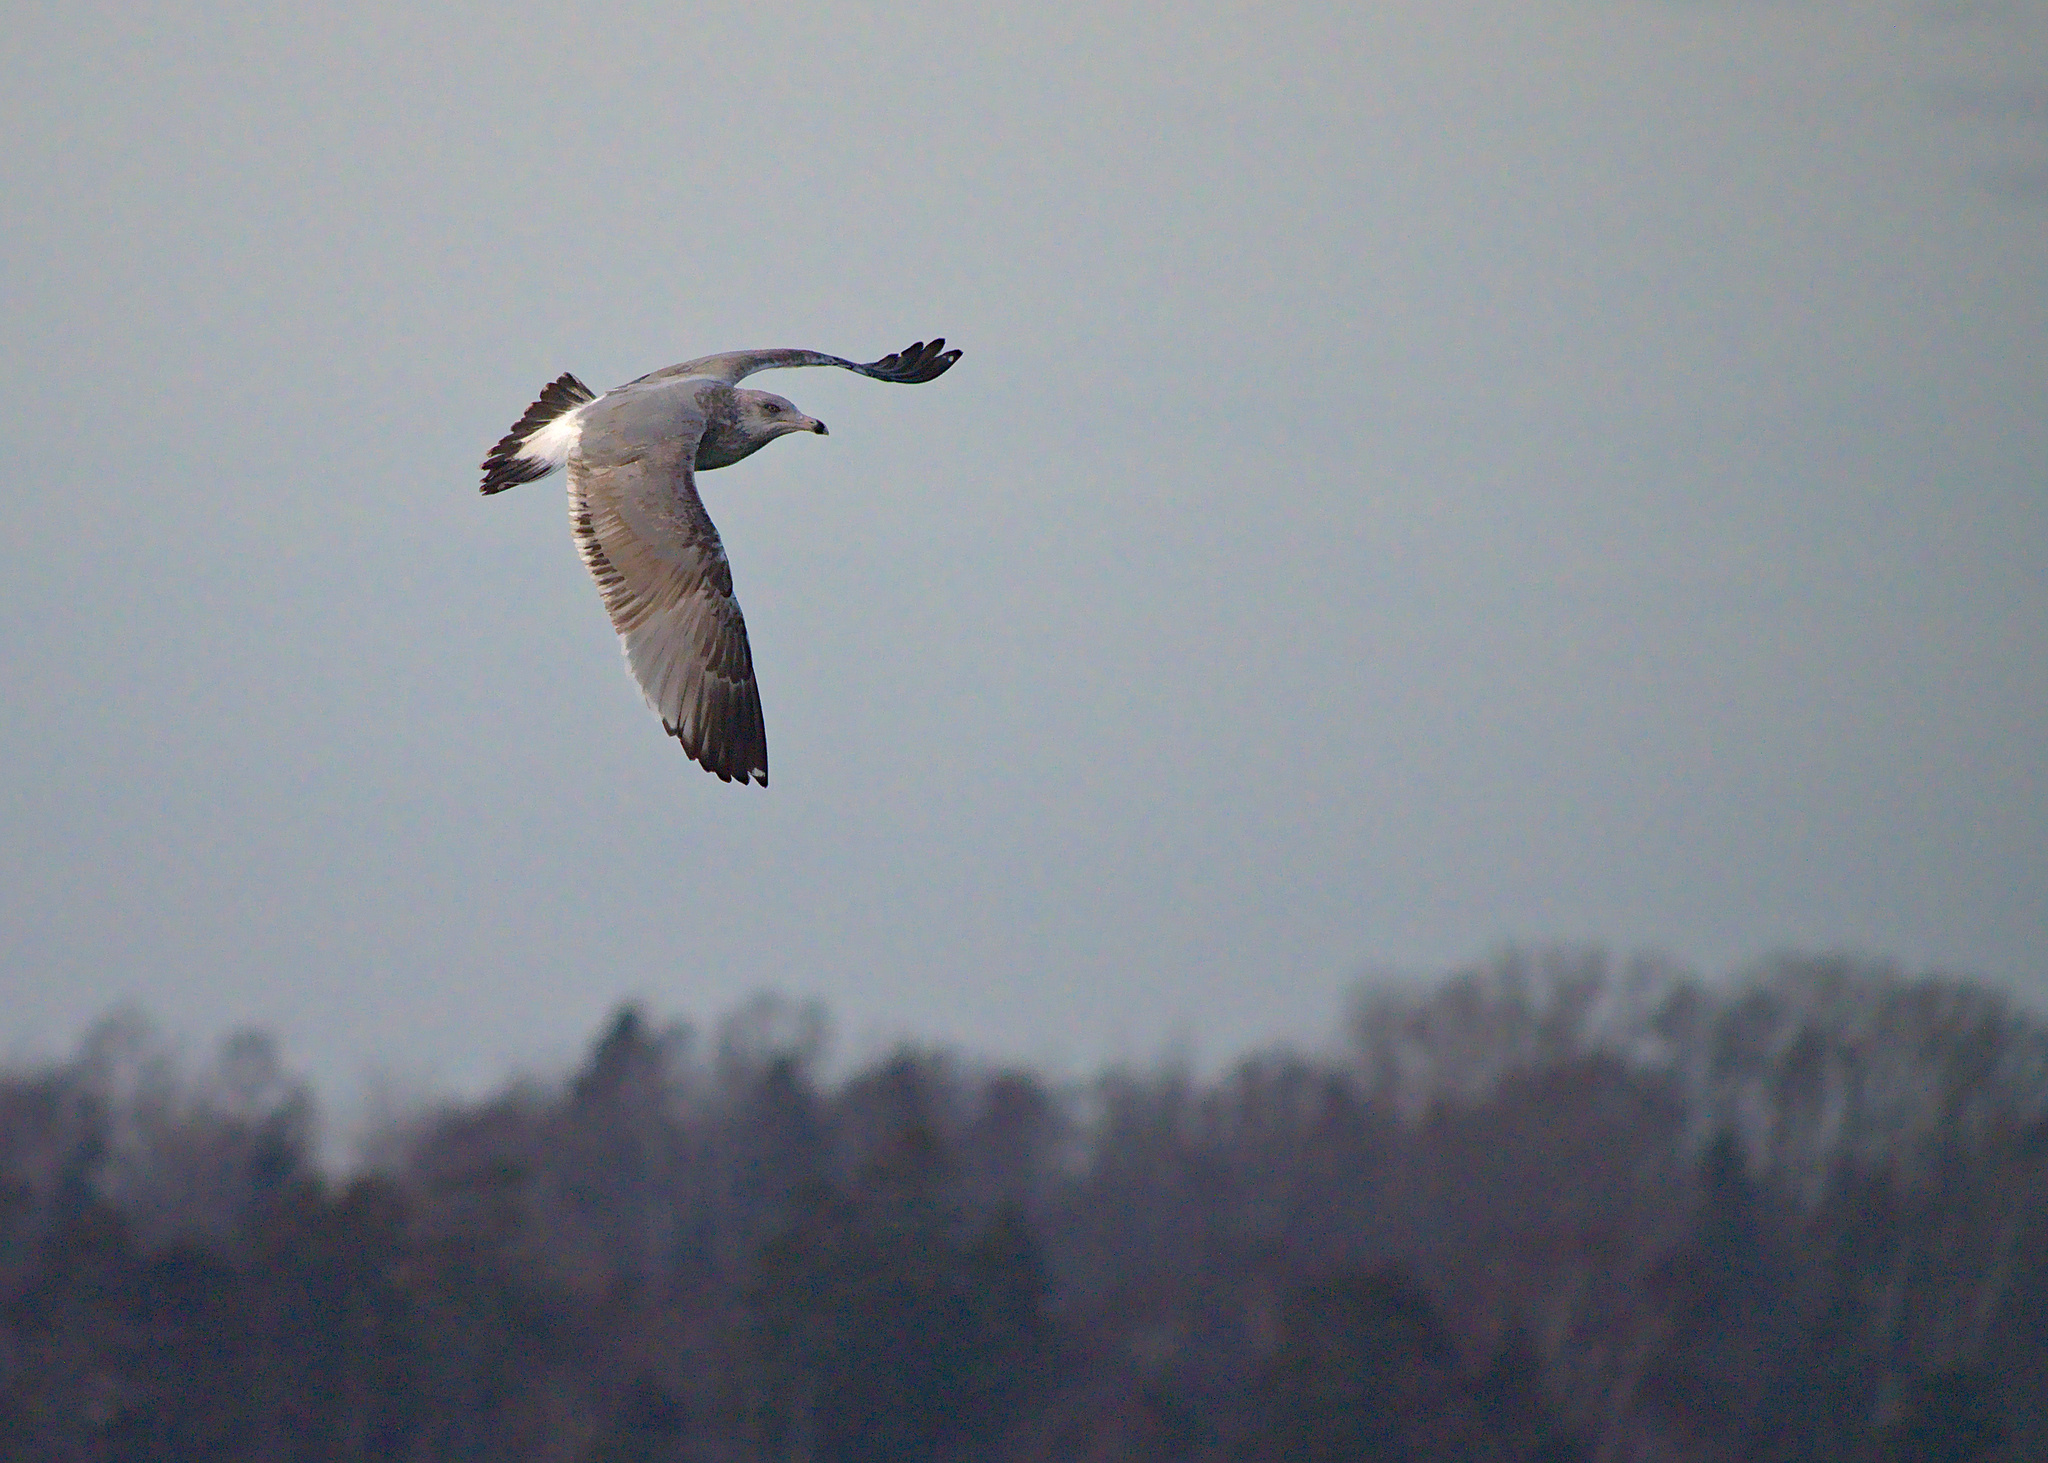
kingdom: Animalia
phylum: Chordata
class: Aves
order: Charadriiformes
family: Laridae
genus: Larus
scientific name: Larus argentatus
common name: Herring gull
